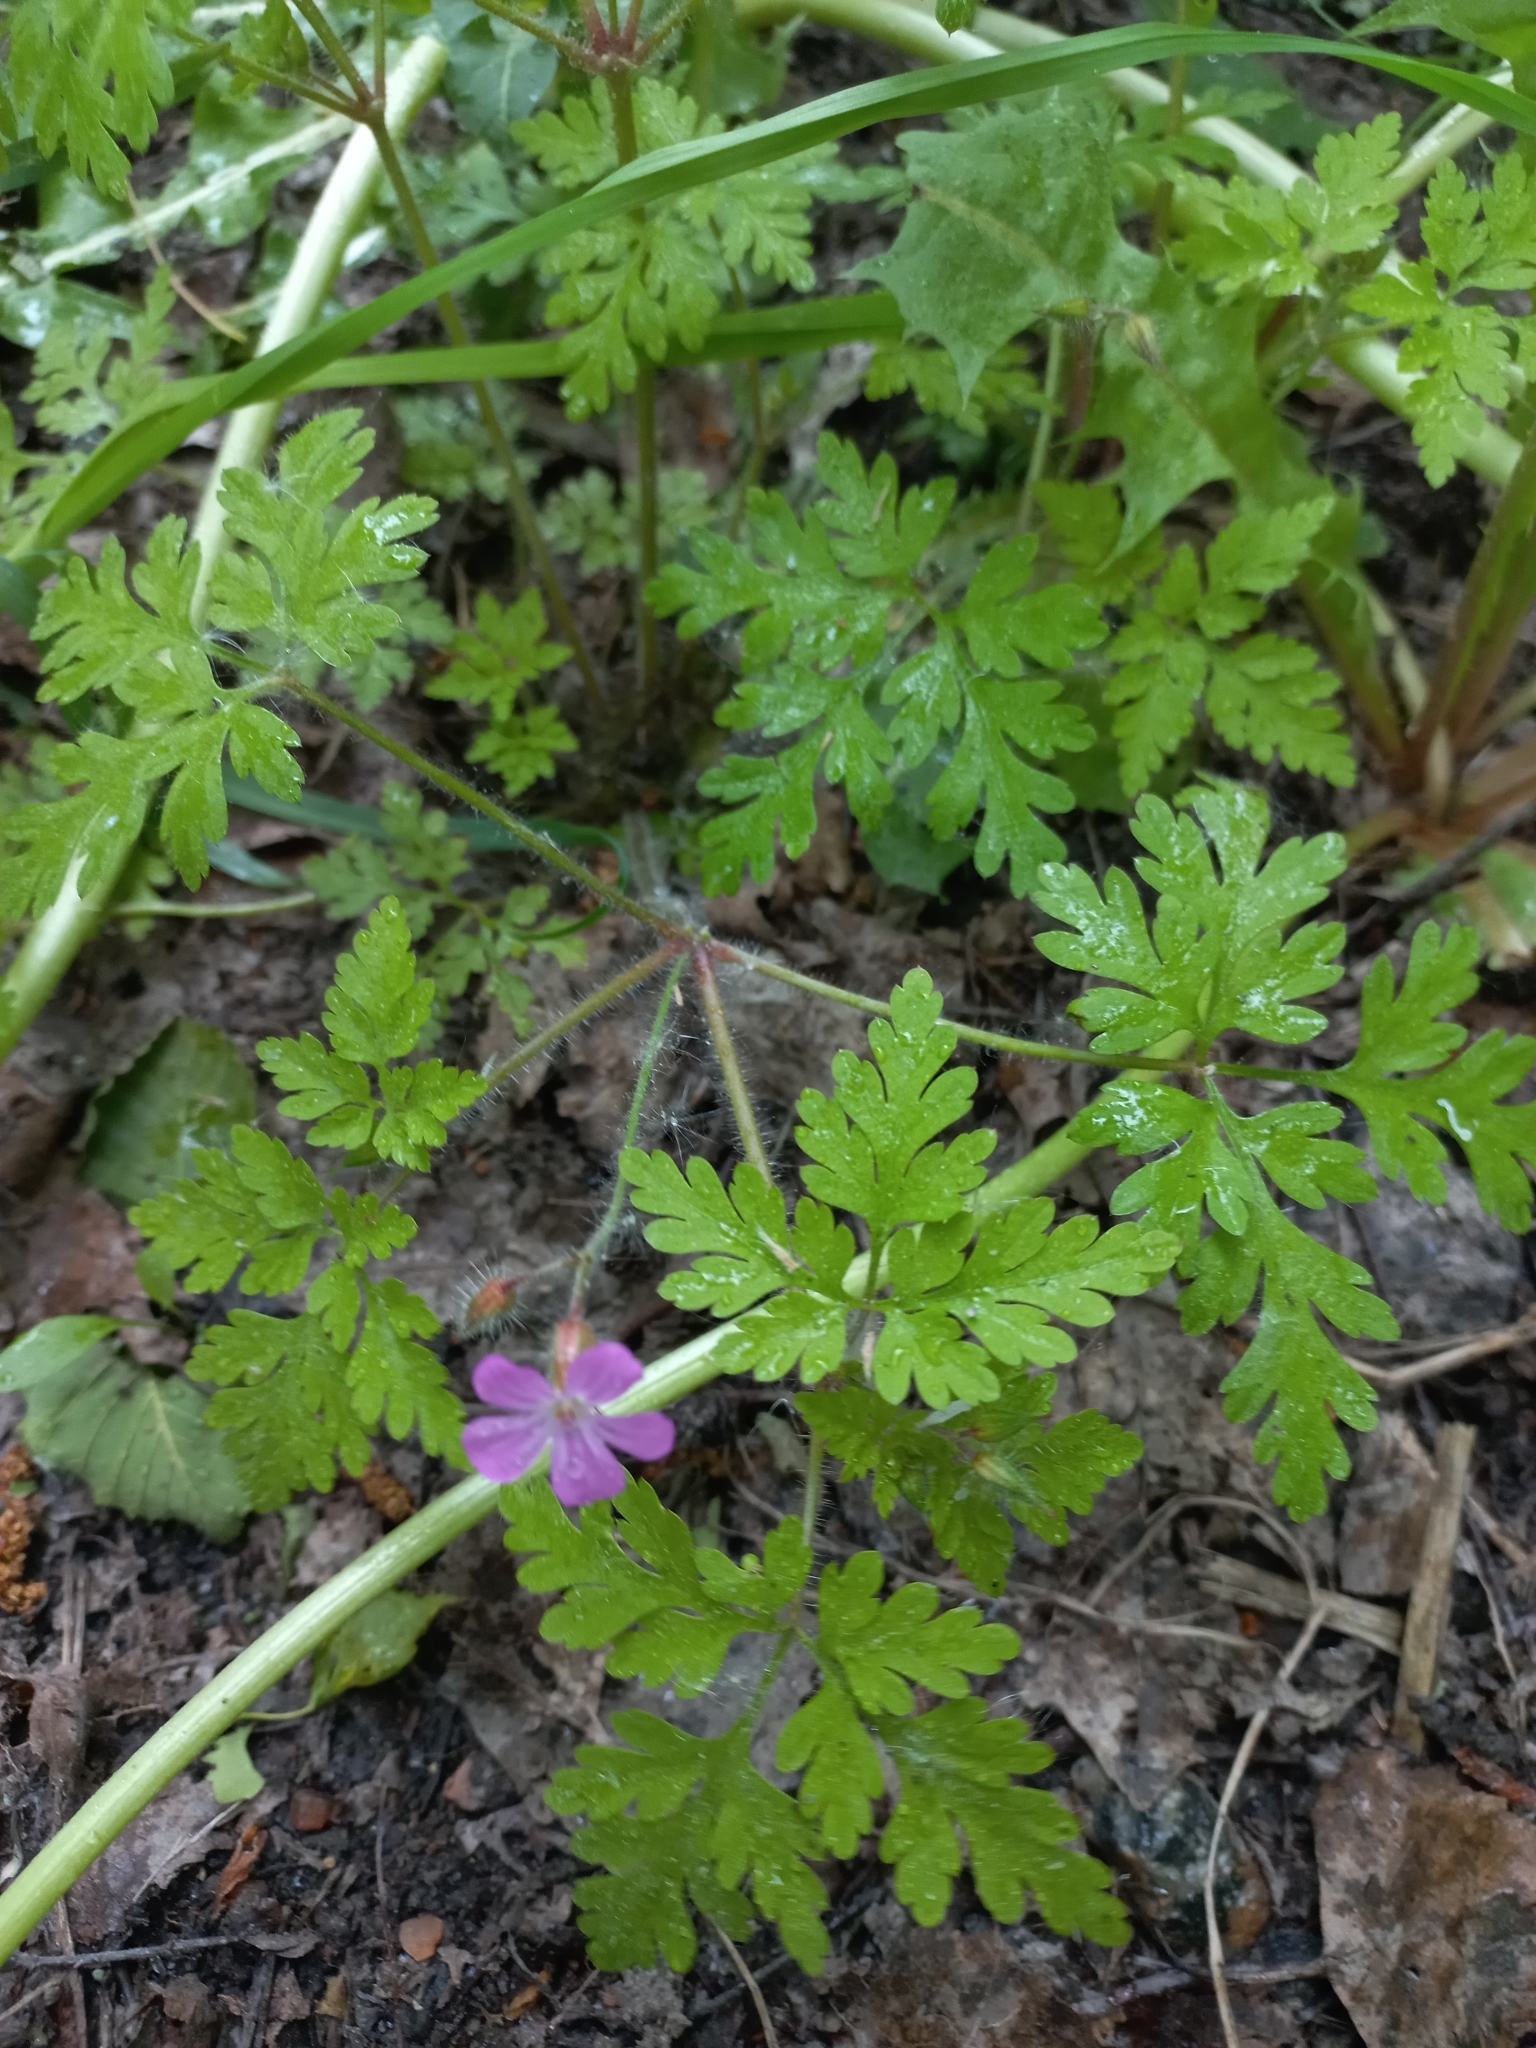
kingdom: Plantae
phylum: Tracheophyta
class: Magnoliopsida
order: Geraniales
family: Geraniaceae
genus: Geranium
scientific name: Geranium robertianum
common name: Herb-robert
